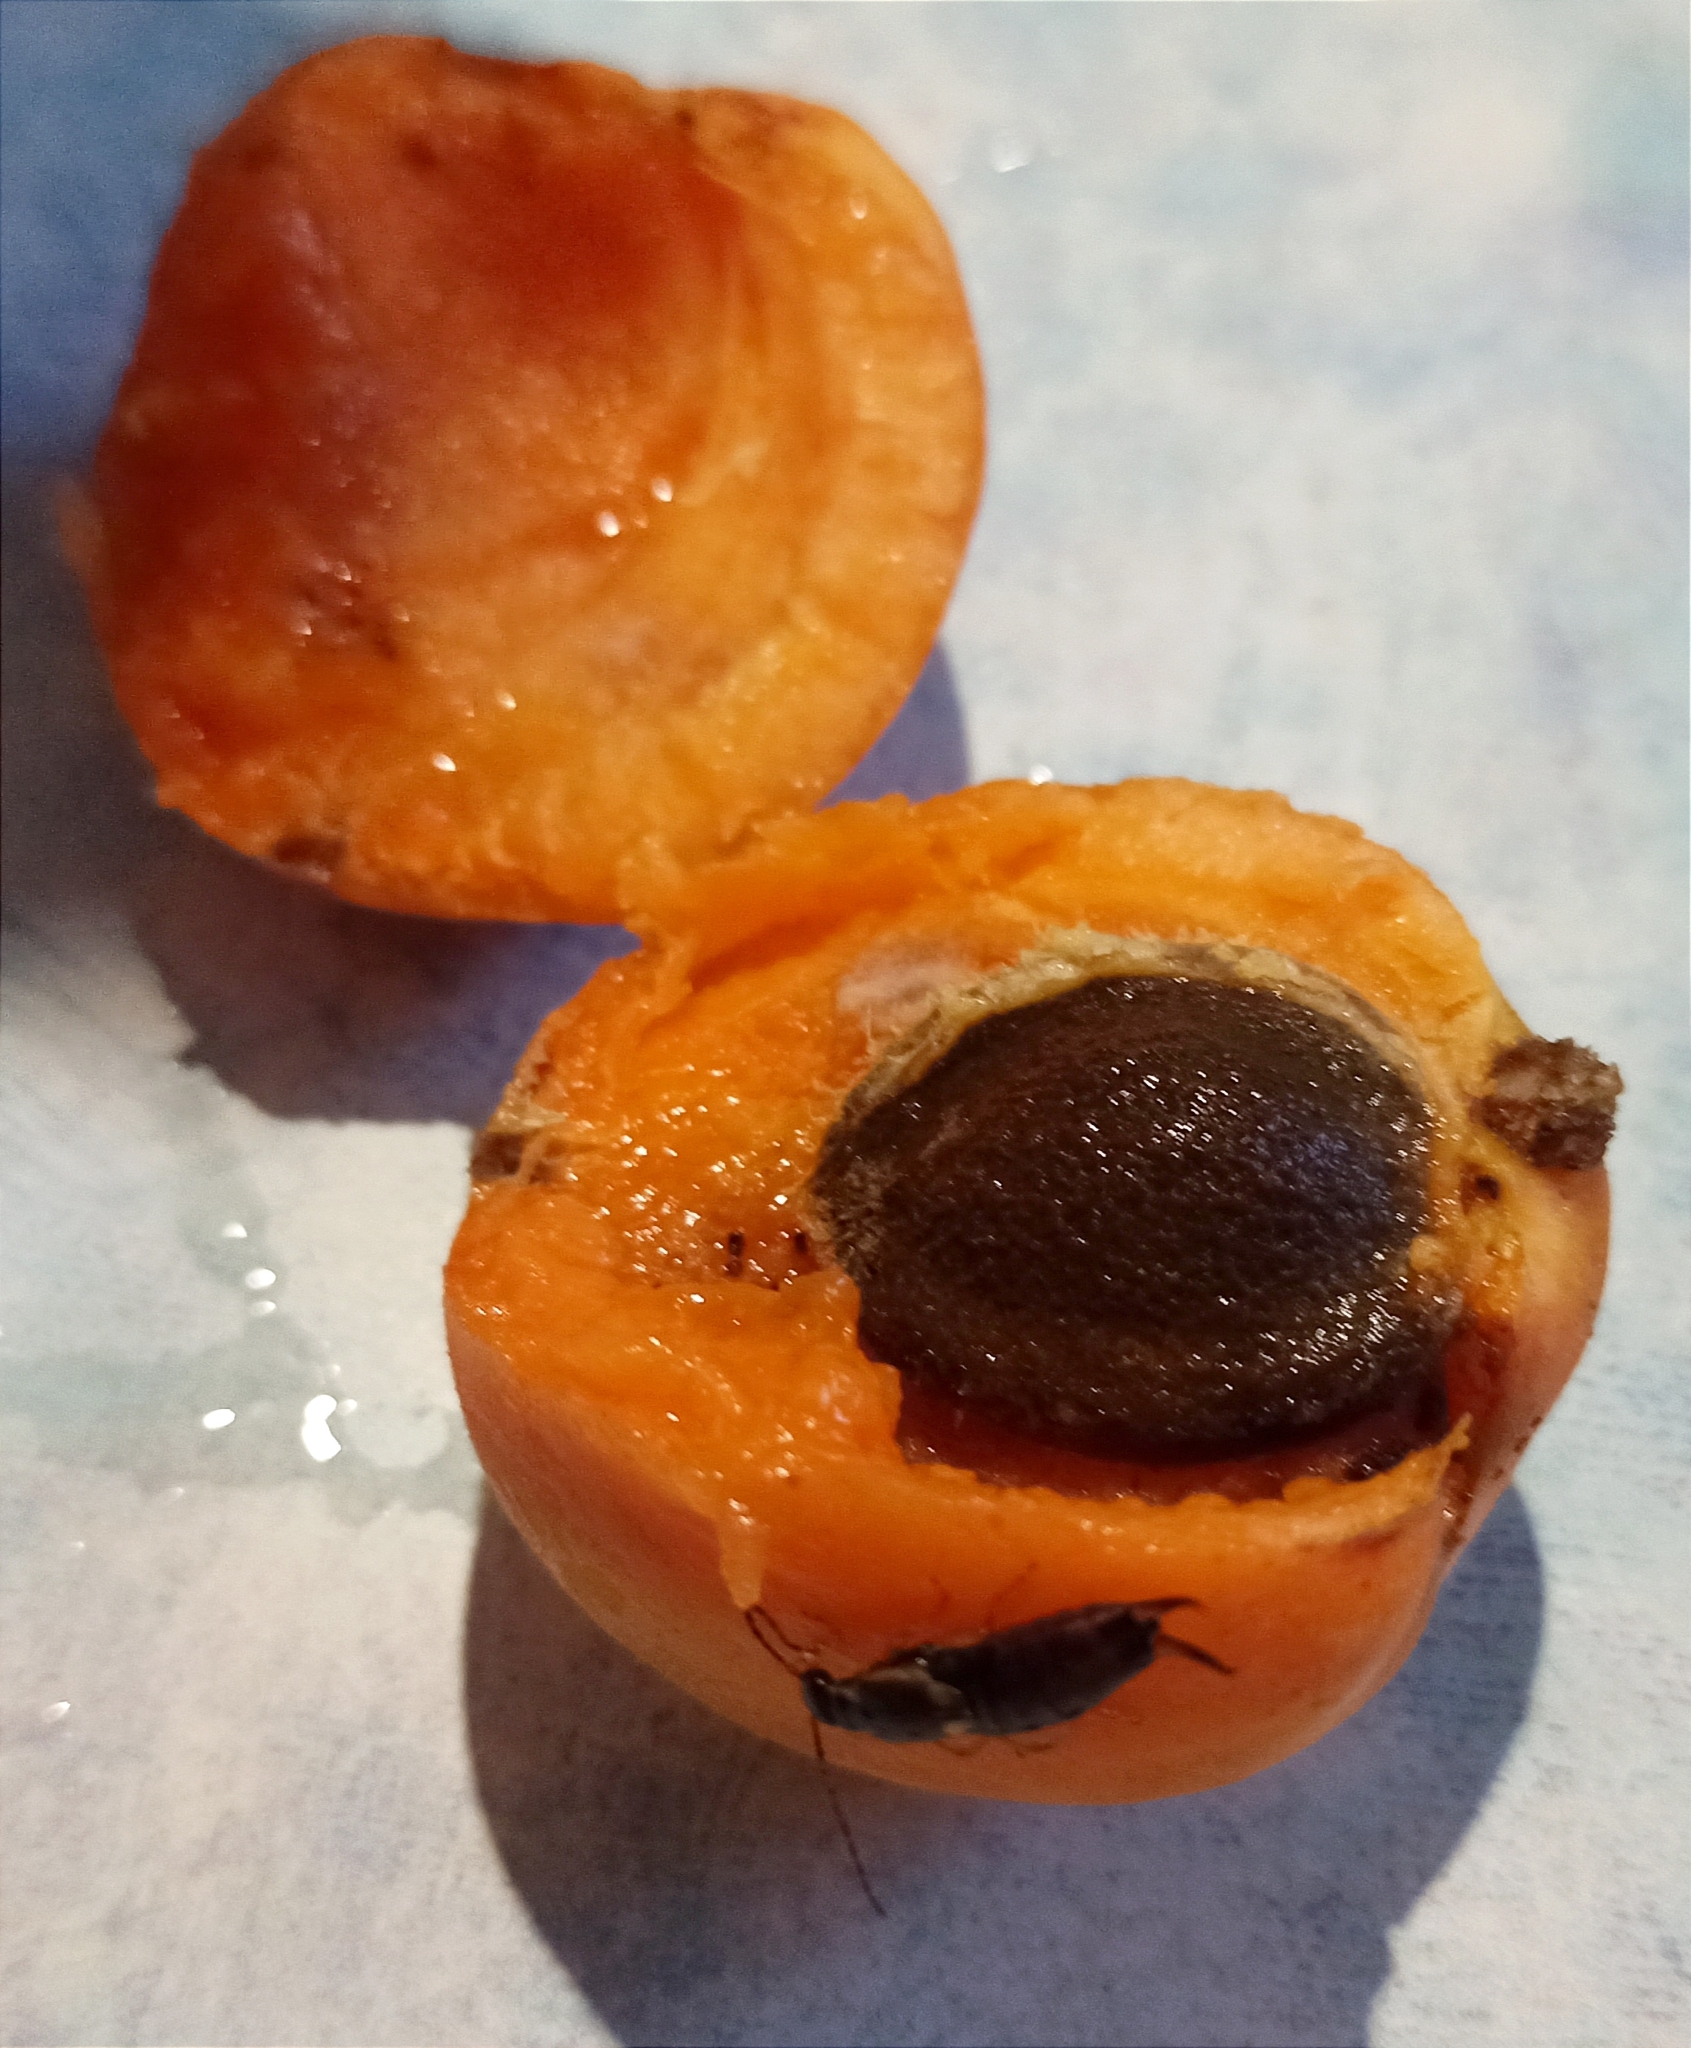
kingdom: Animalia
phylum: Arthropoda
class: Insecta
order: Dermaptera
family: Forficulidae
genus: Forficula
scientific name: Forficula
